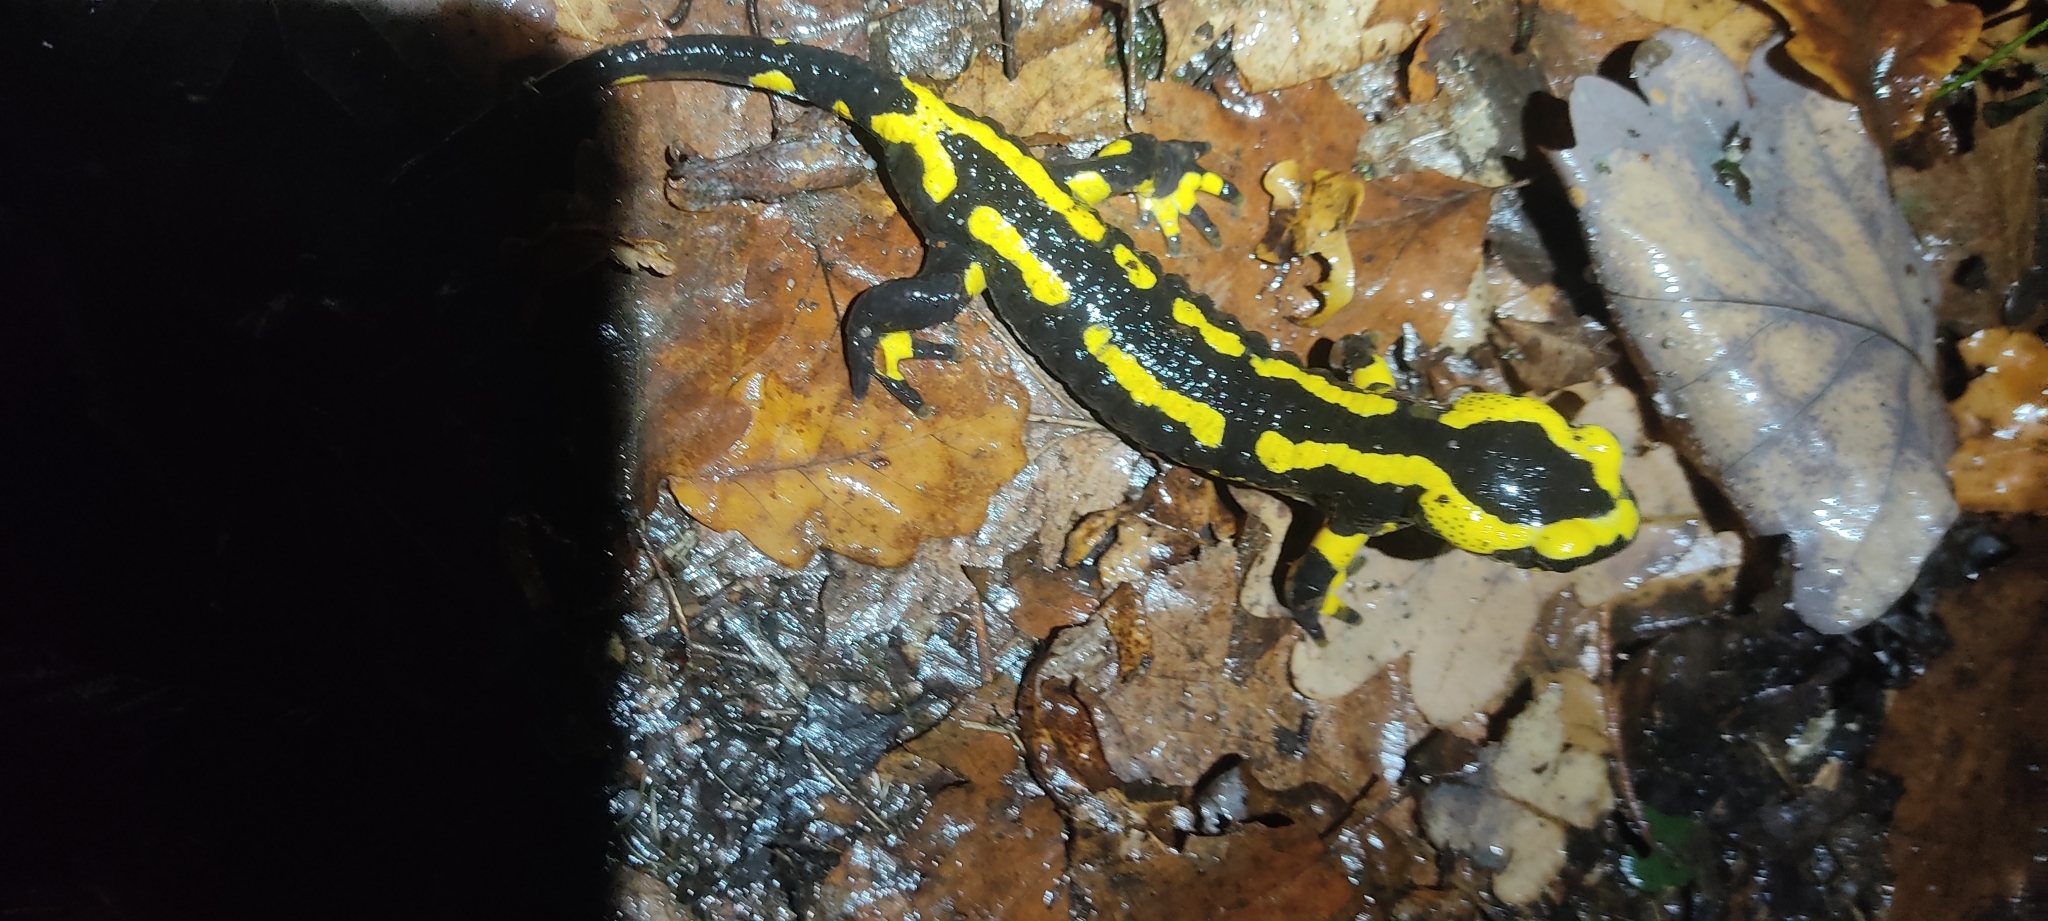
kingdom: Animalia
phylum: Chordata
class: Amphibia
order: Caudata
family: Salamandridae
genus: Salamandra
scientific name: Salamandra salamandra
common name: Fire salamander
